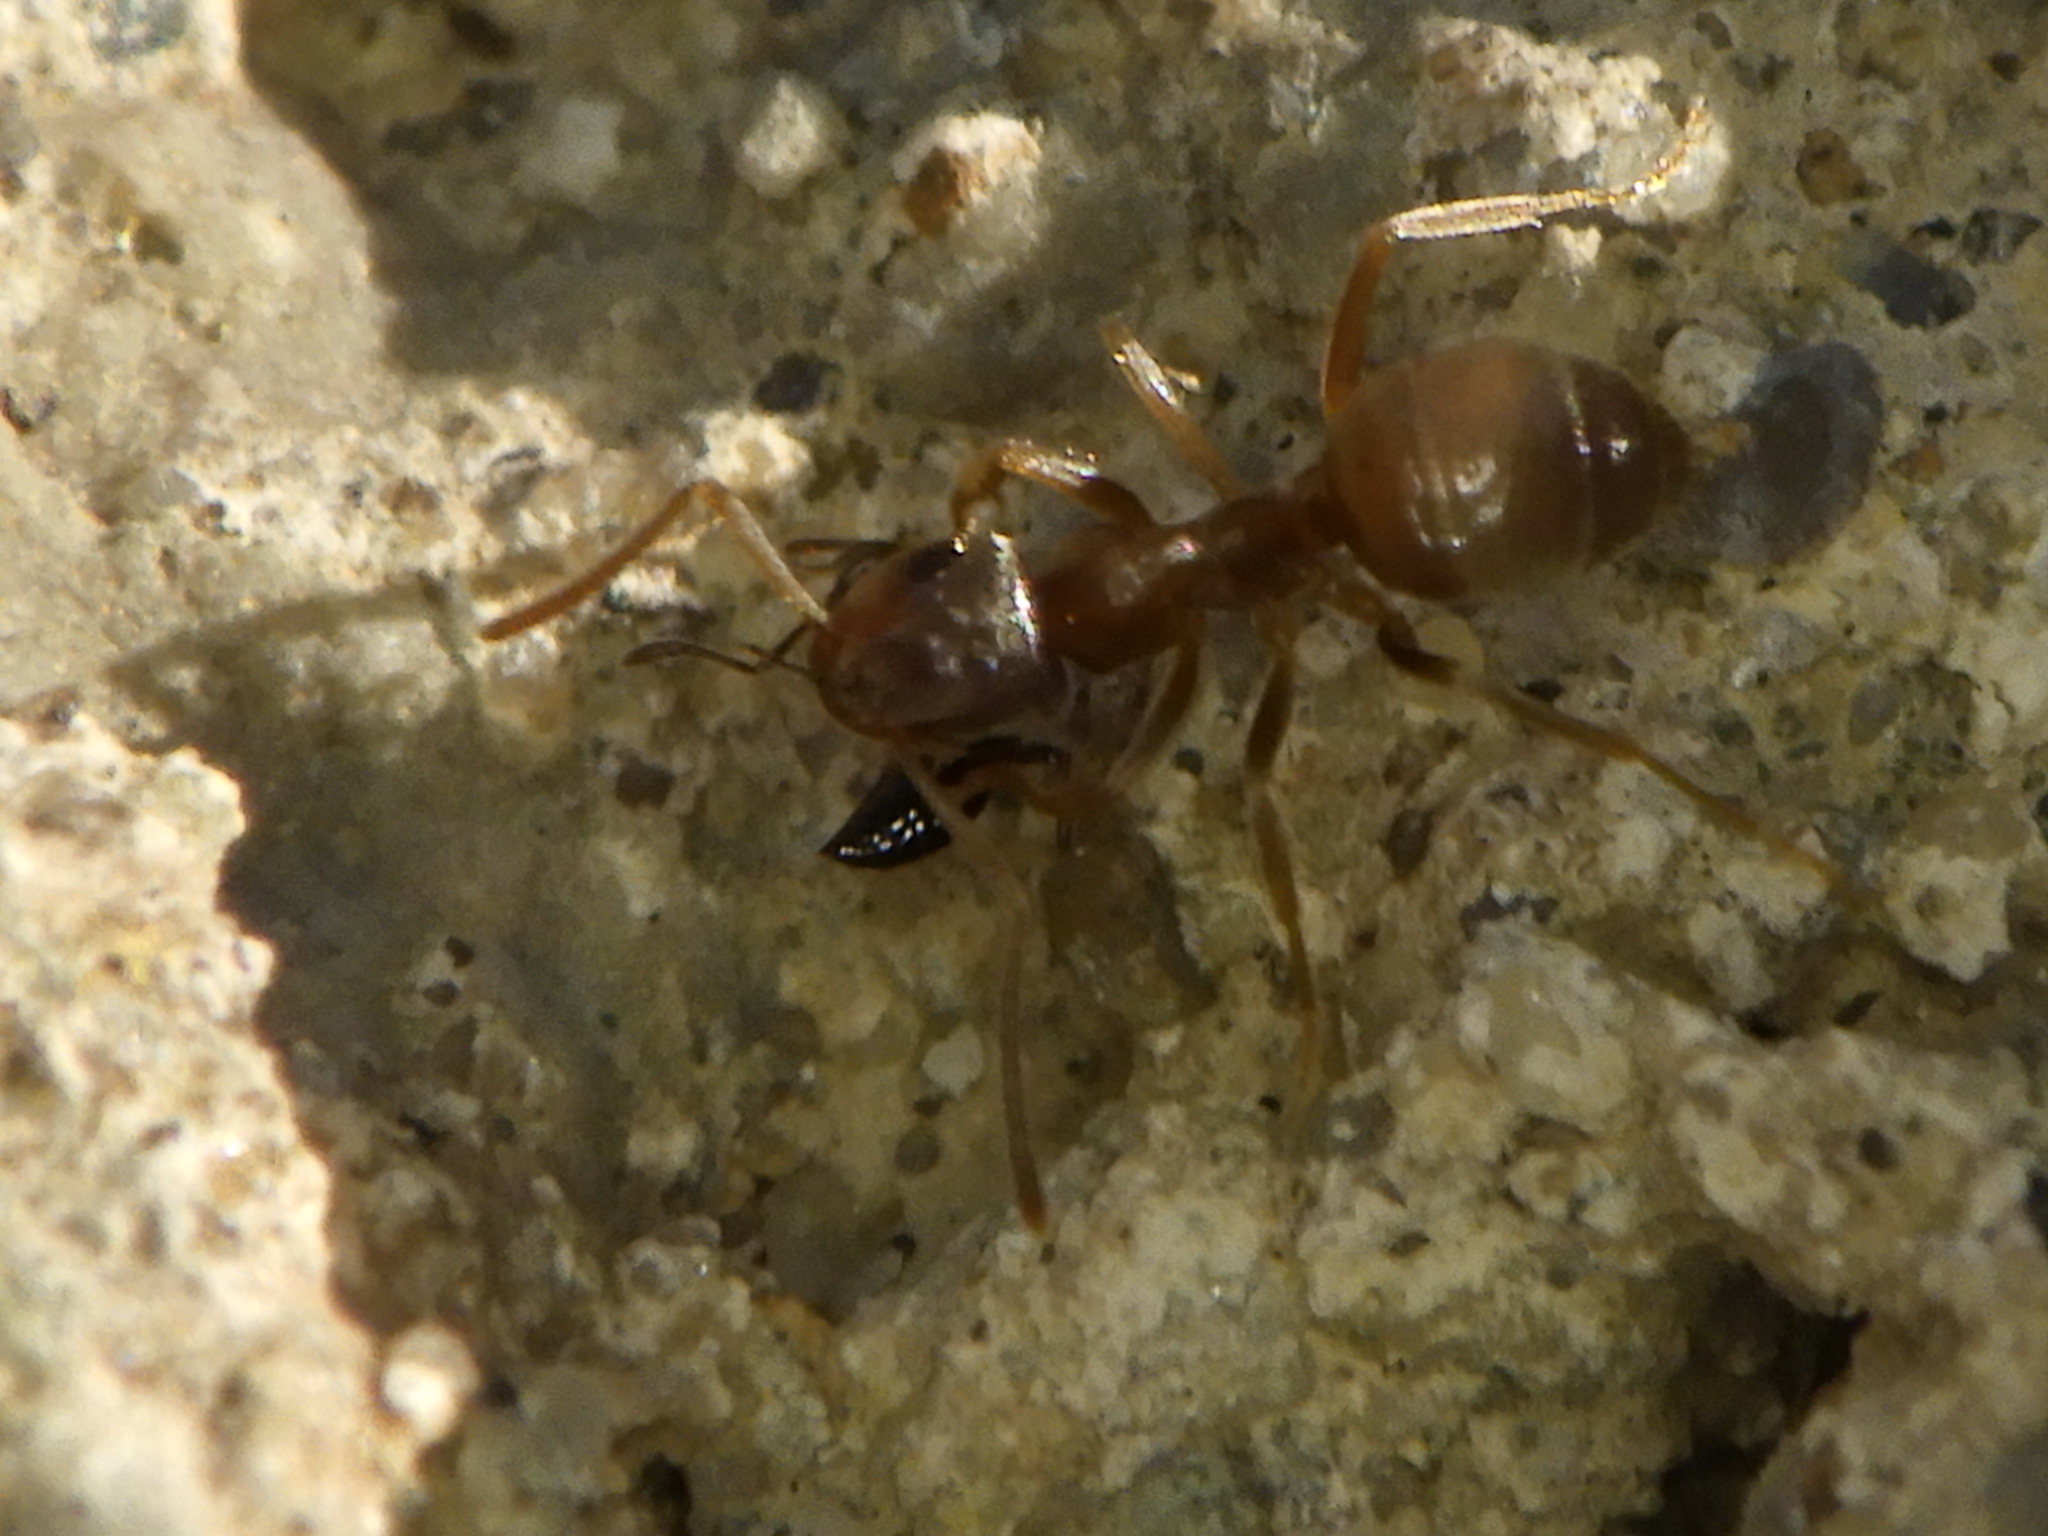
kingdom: Animalia
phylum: Arthropoda
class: Insecta
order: Hymenoptera
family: Formicidae
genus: Lasius
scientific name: Lasius neoniger
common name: Turfgrass ant
